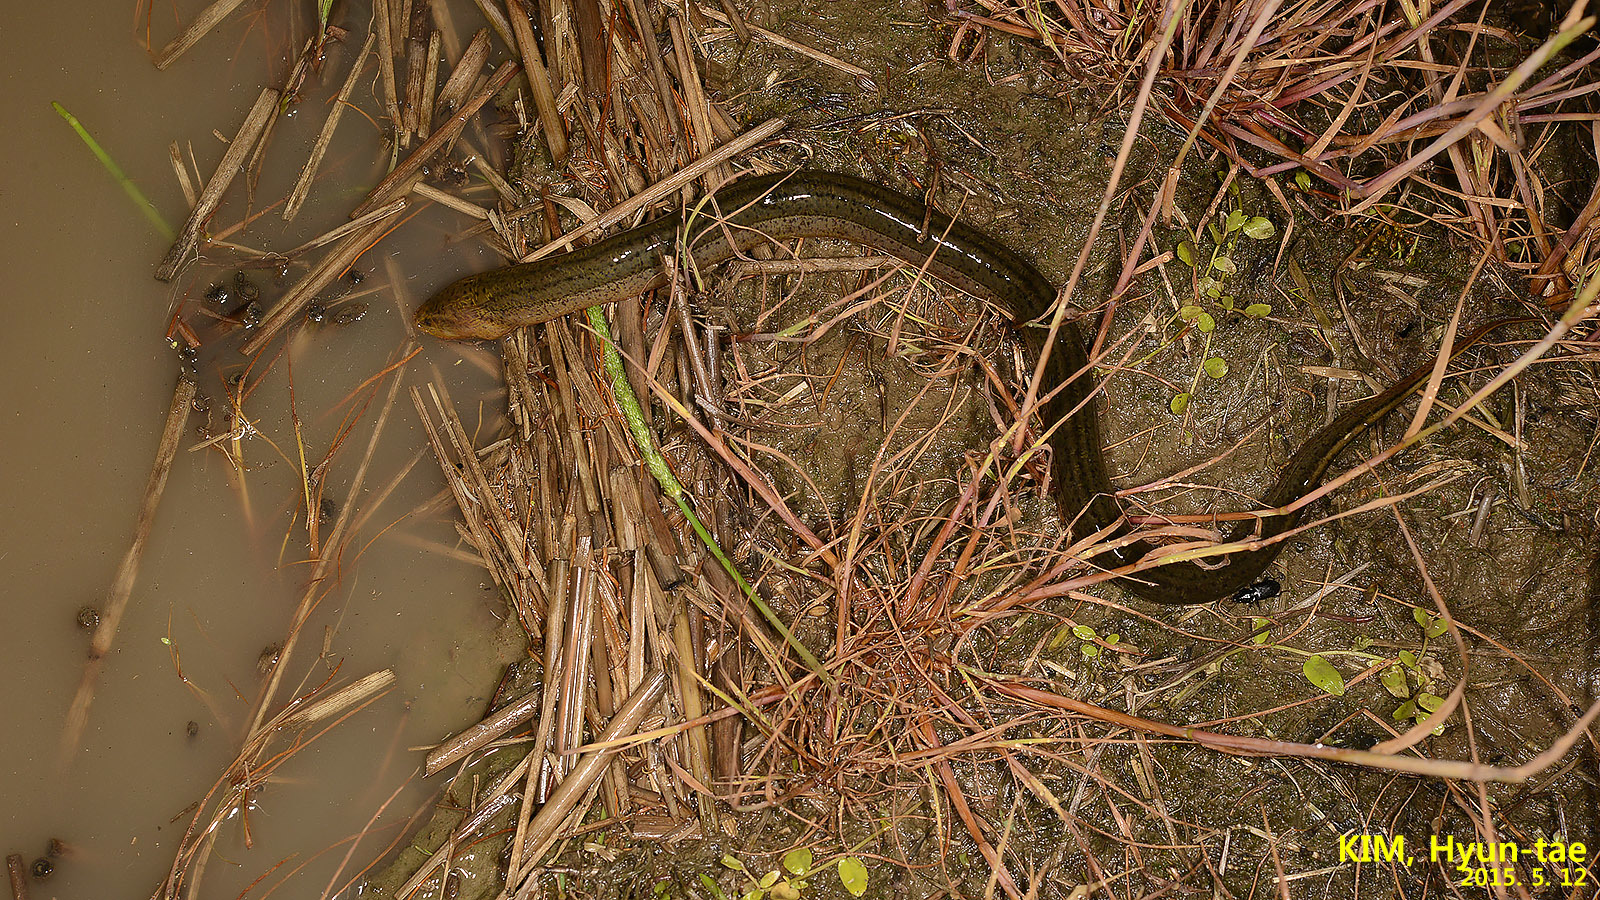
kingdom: Animalia
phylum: Chordata
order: Synbranchiformes
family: Synbranchidae
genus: Monopterus
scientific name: Monopterus albus
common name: Asian swamp eel
